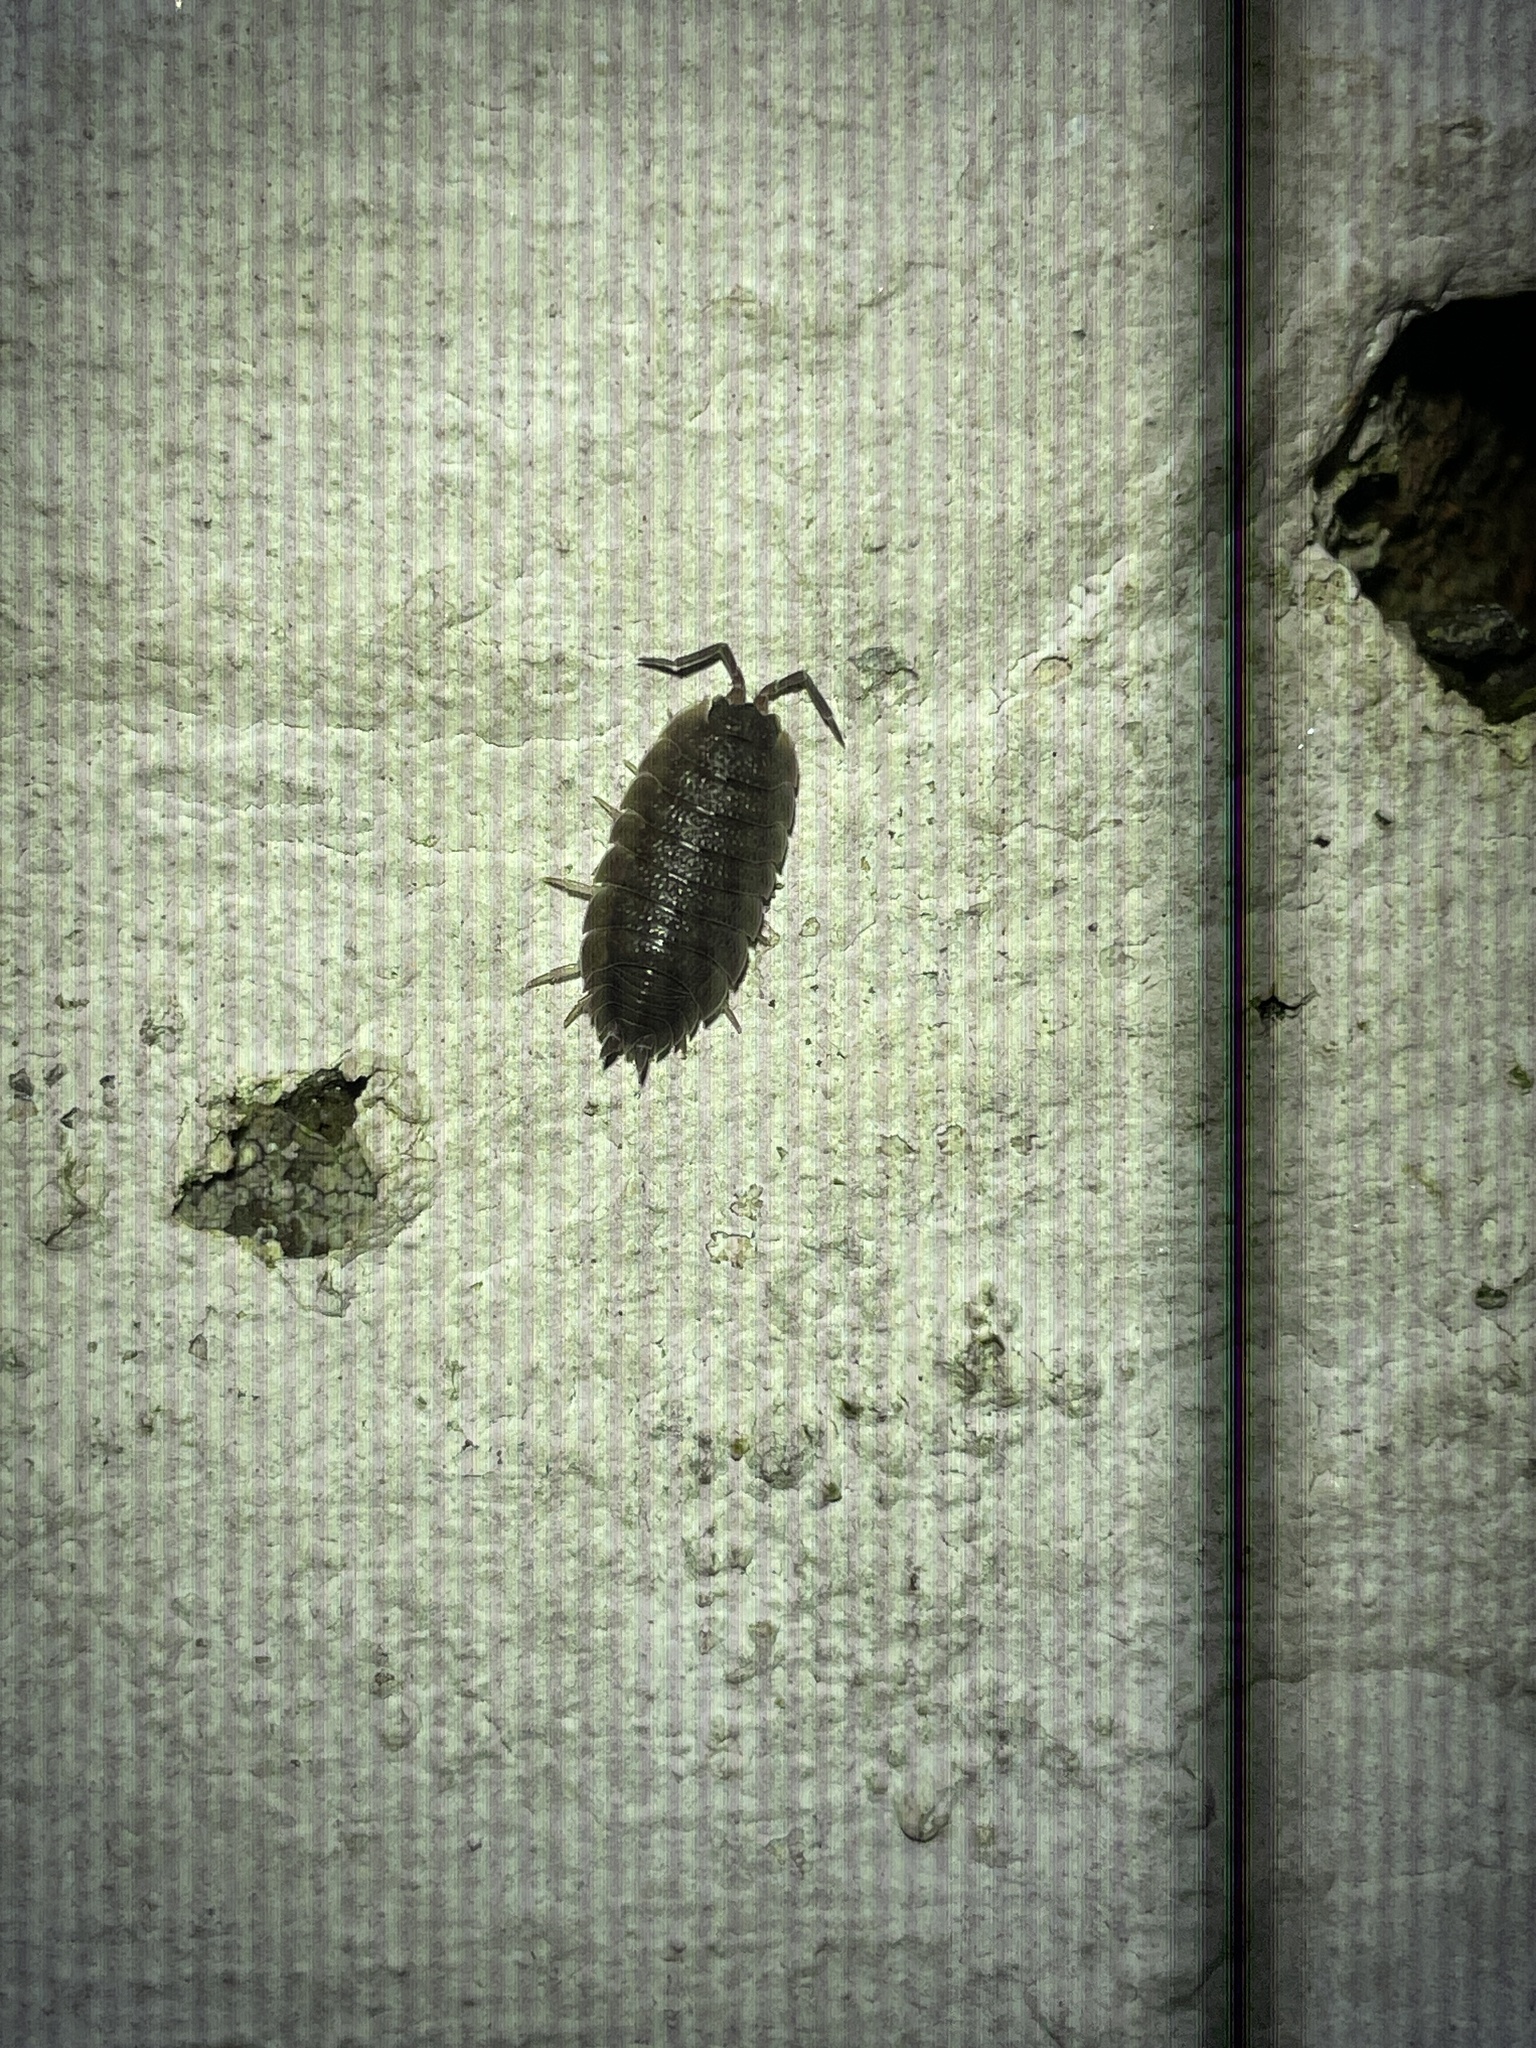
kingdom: Animalia
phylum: Arthropoda
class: Malacostraca
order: Isopoda
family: Porcellionidae
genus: Porcellio
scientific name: Porcellio scaber
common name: Common rough woodlouse
